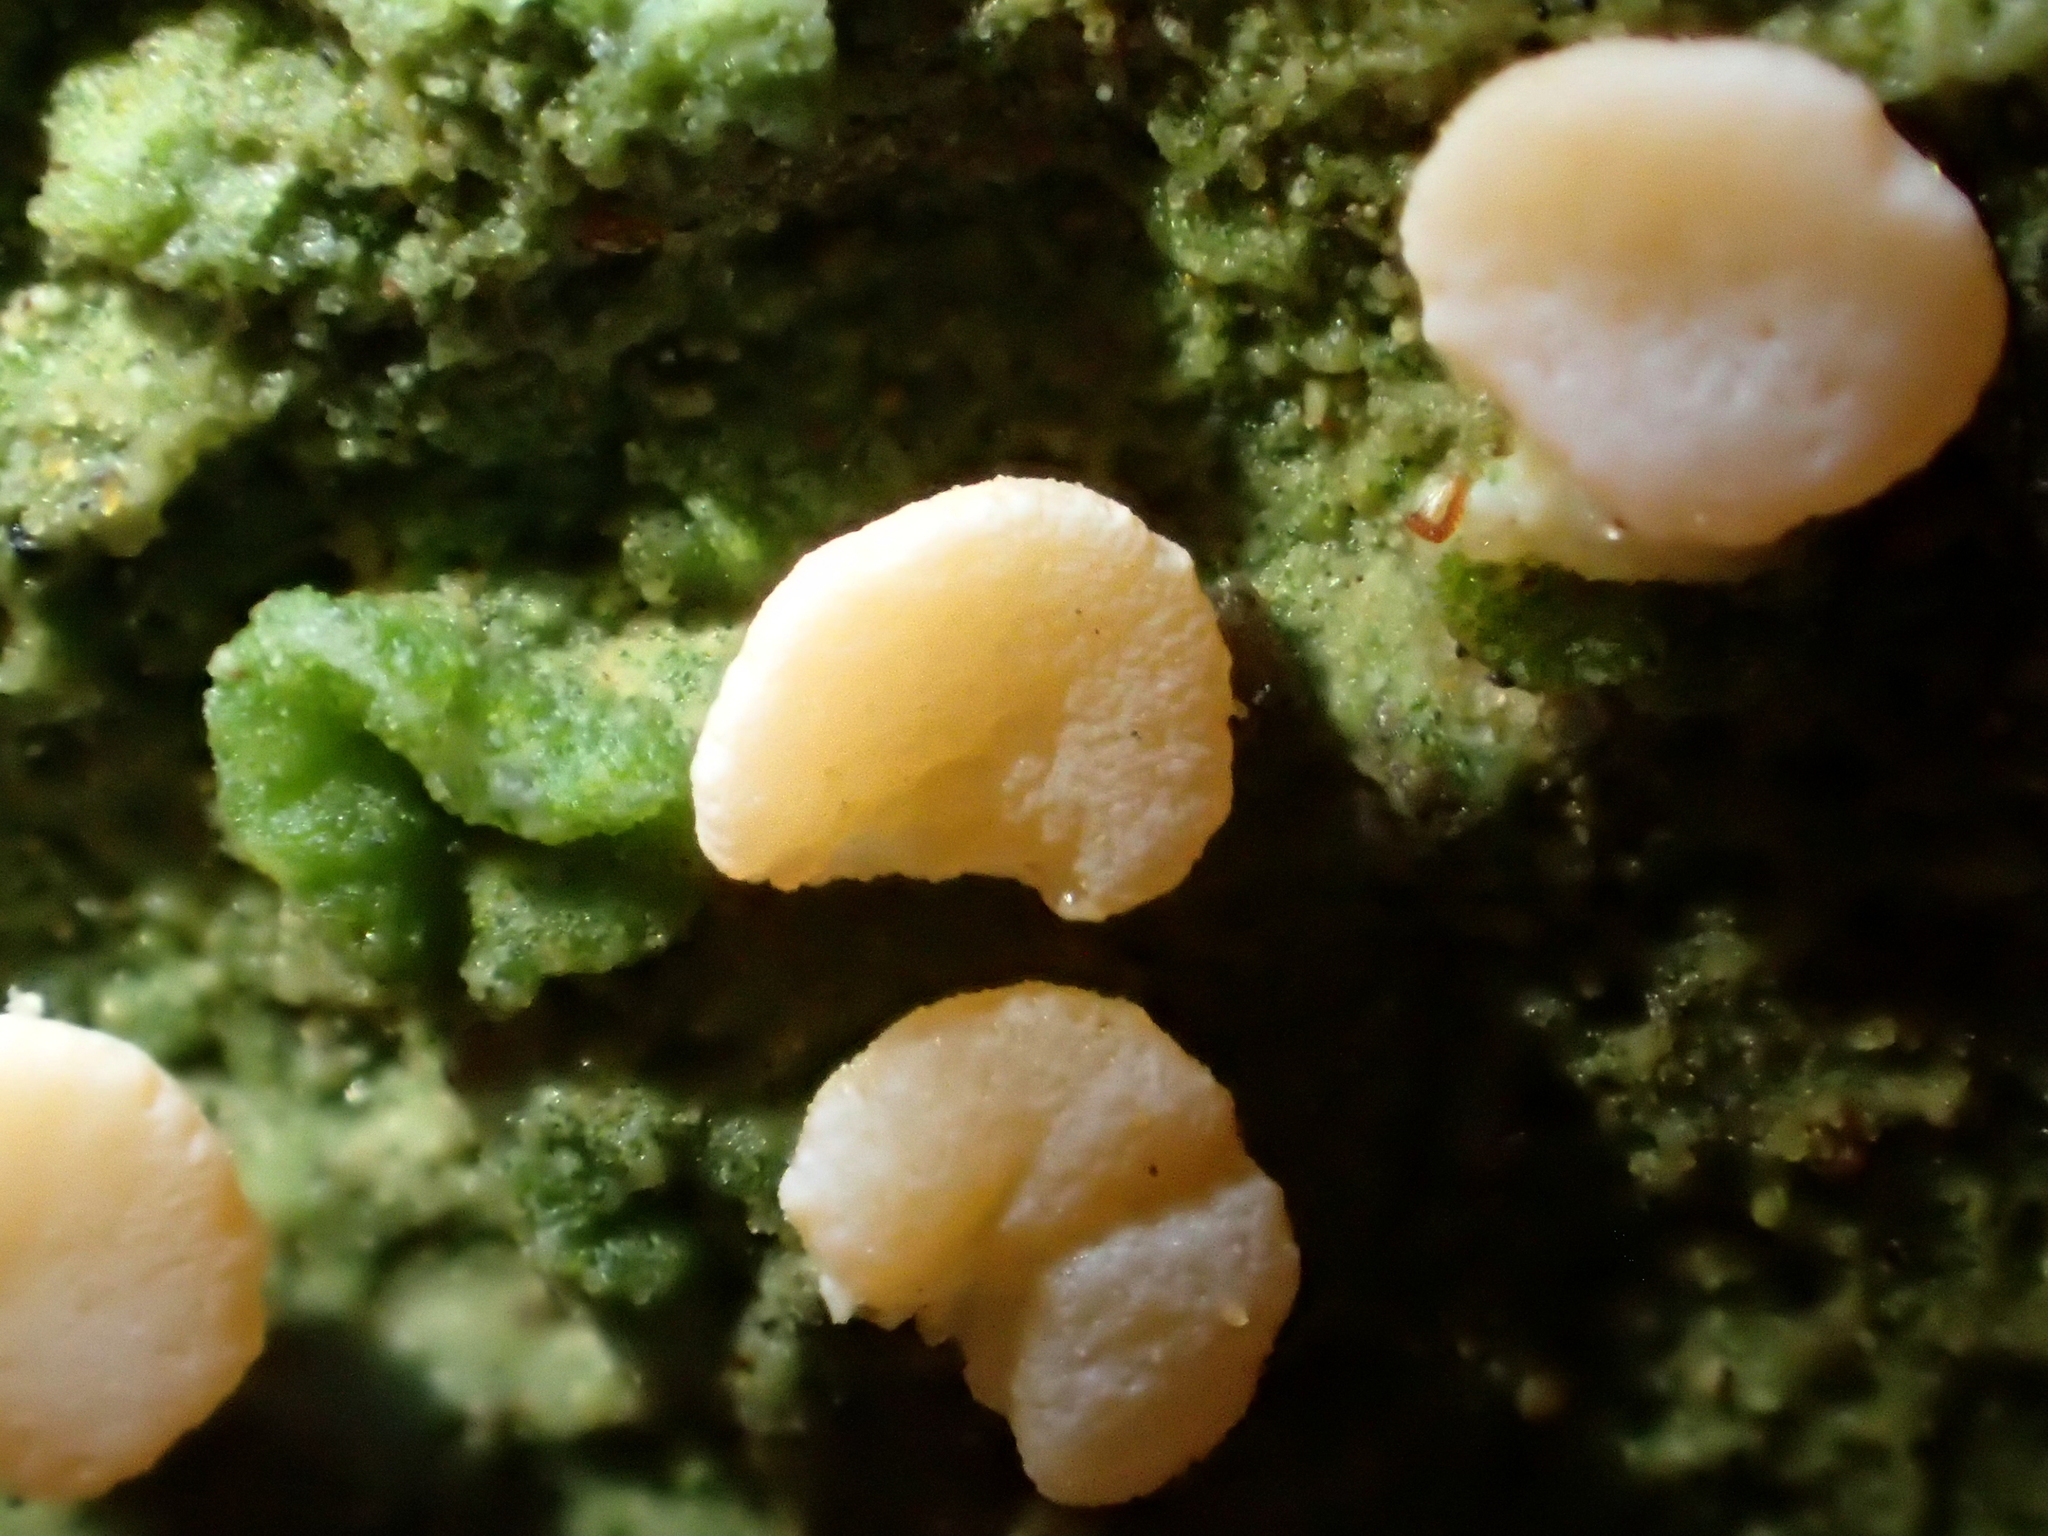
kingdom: Fungi
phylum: Ascomycota
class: Lecanoromycetes
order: Pertusariales
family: Icmadophilaceae
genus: Dibaeis
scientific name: Dibaeis absoluta
